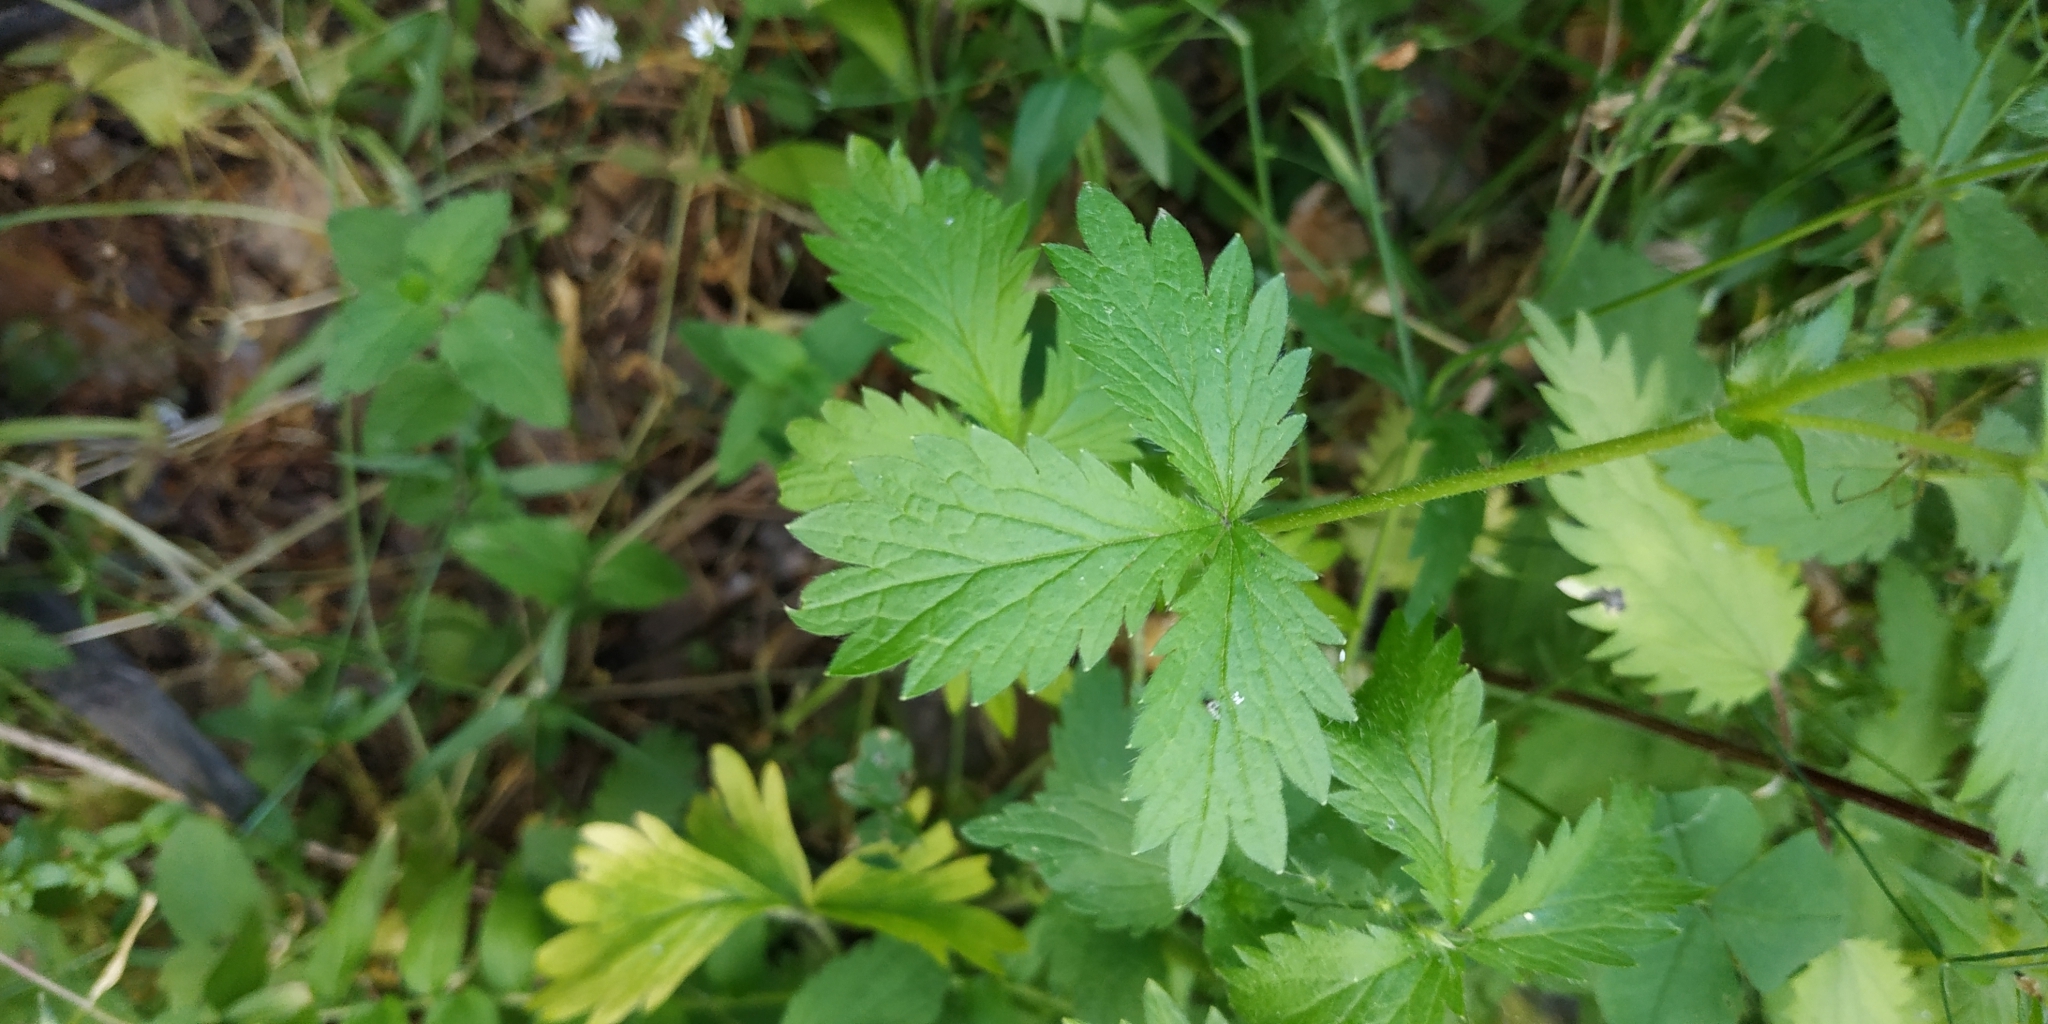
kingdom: Plantae
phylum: Tracheophyta
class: Magnoliopsida
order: Rosales
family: Rosaceae
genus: Potentilla
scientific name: Potentilla norvegica
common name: Ternate-leaved cinquefoil
